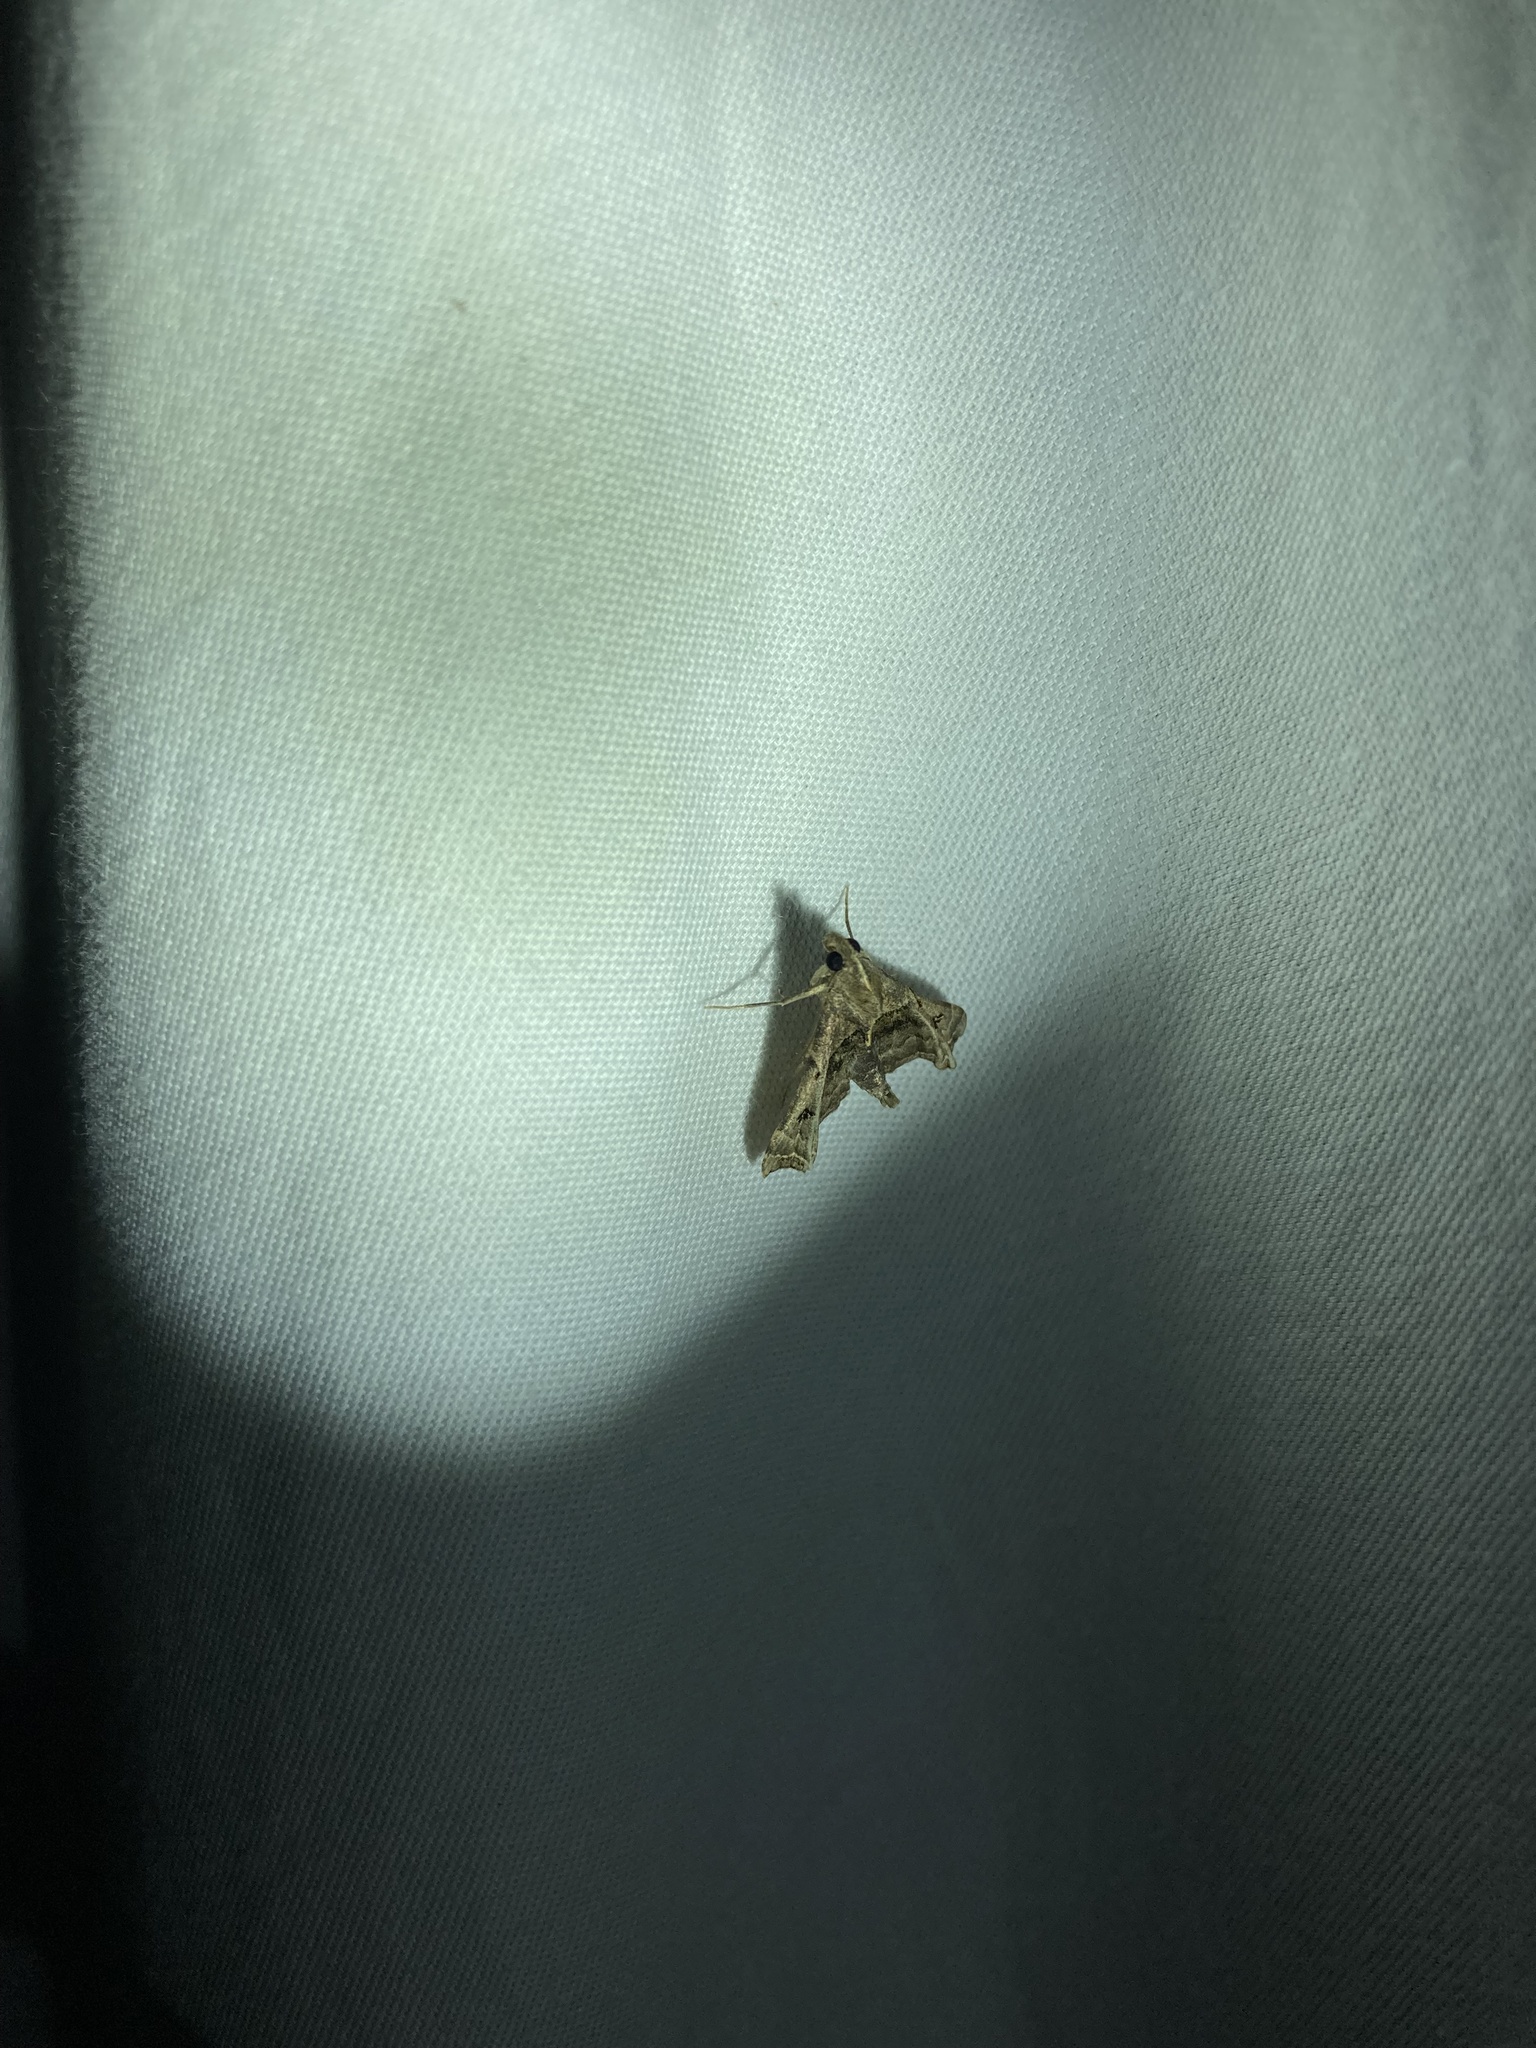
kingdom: Animalia
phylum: Arthropoda
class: Insecta
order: Lepidoptera
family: Erebidae
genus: Palthis
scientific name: Palthis asopialis
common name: Faint-spotted palthis moth
